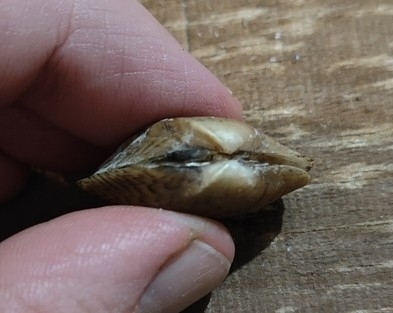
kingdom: Animalia
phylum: Mollusca
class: Bivalvia
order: Unionida
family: Unionidae
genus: Truncilla
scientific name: Truncilla truncata
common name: Deertoe
